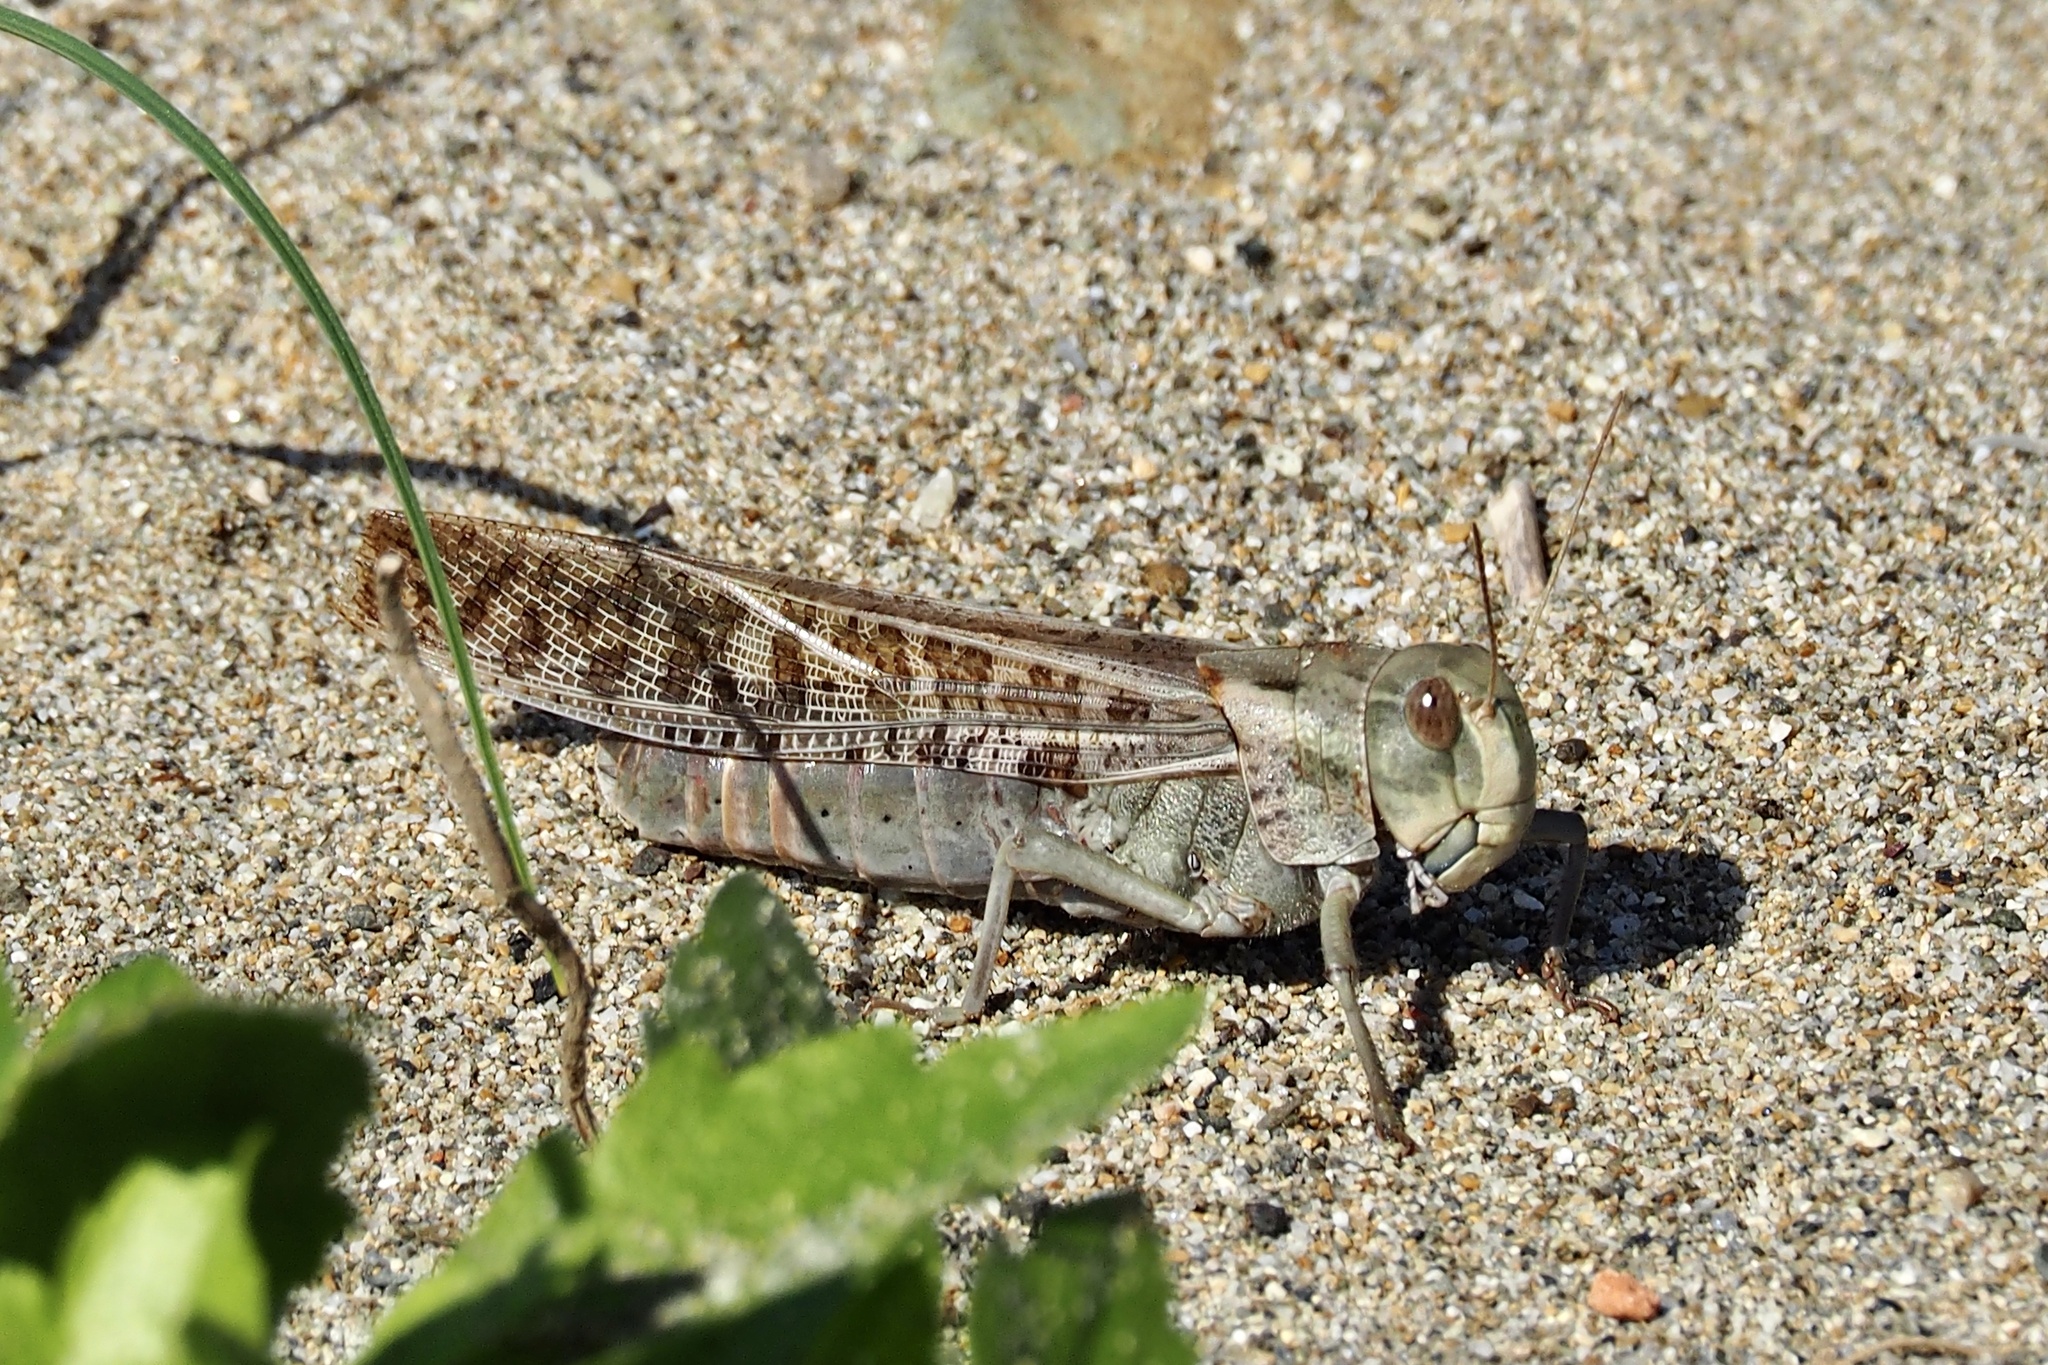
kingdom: Animalia
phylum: Arthropoda
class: Insecta
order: Orthoptera
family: Acrididae
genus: Locusta
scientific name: Locusta migratoria
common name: Migratory locust
